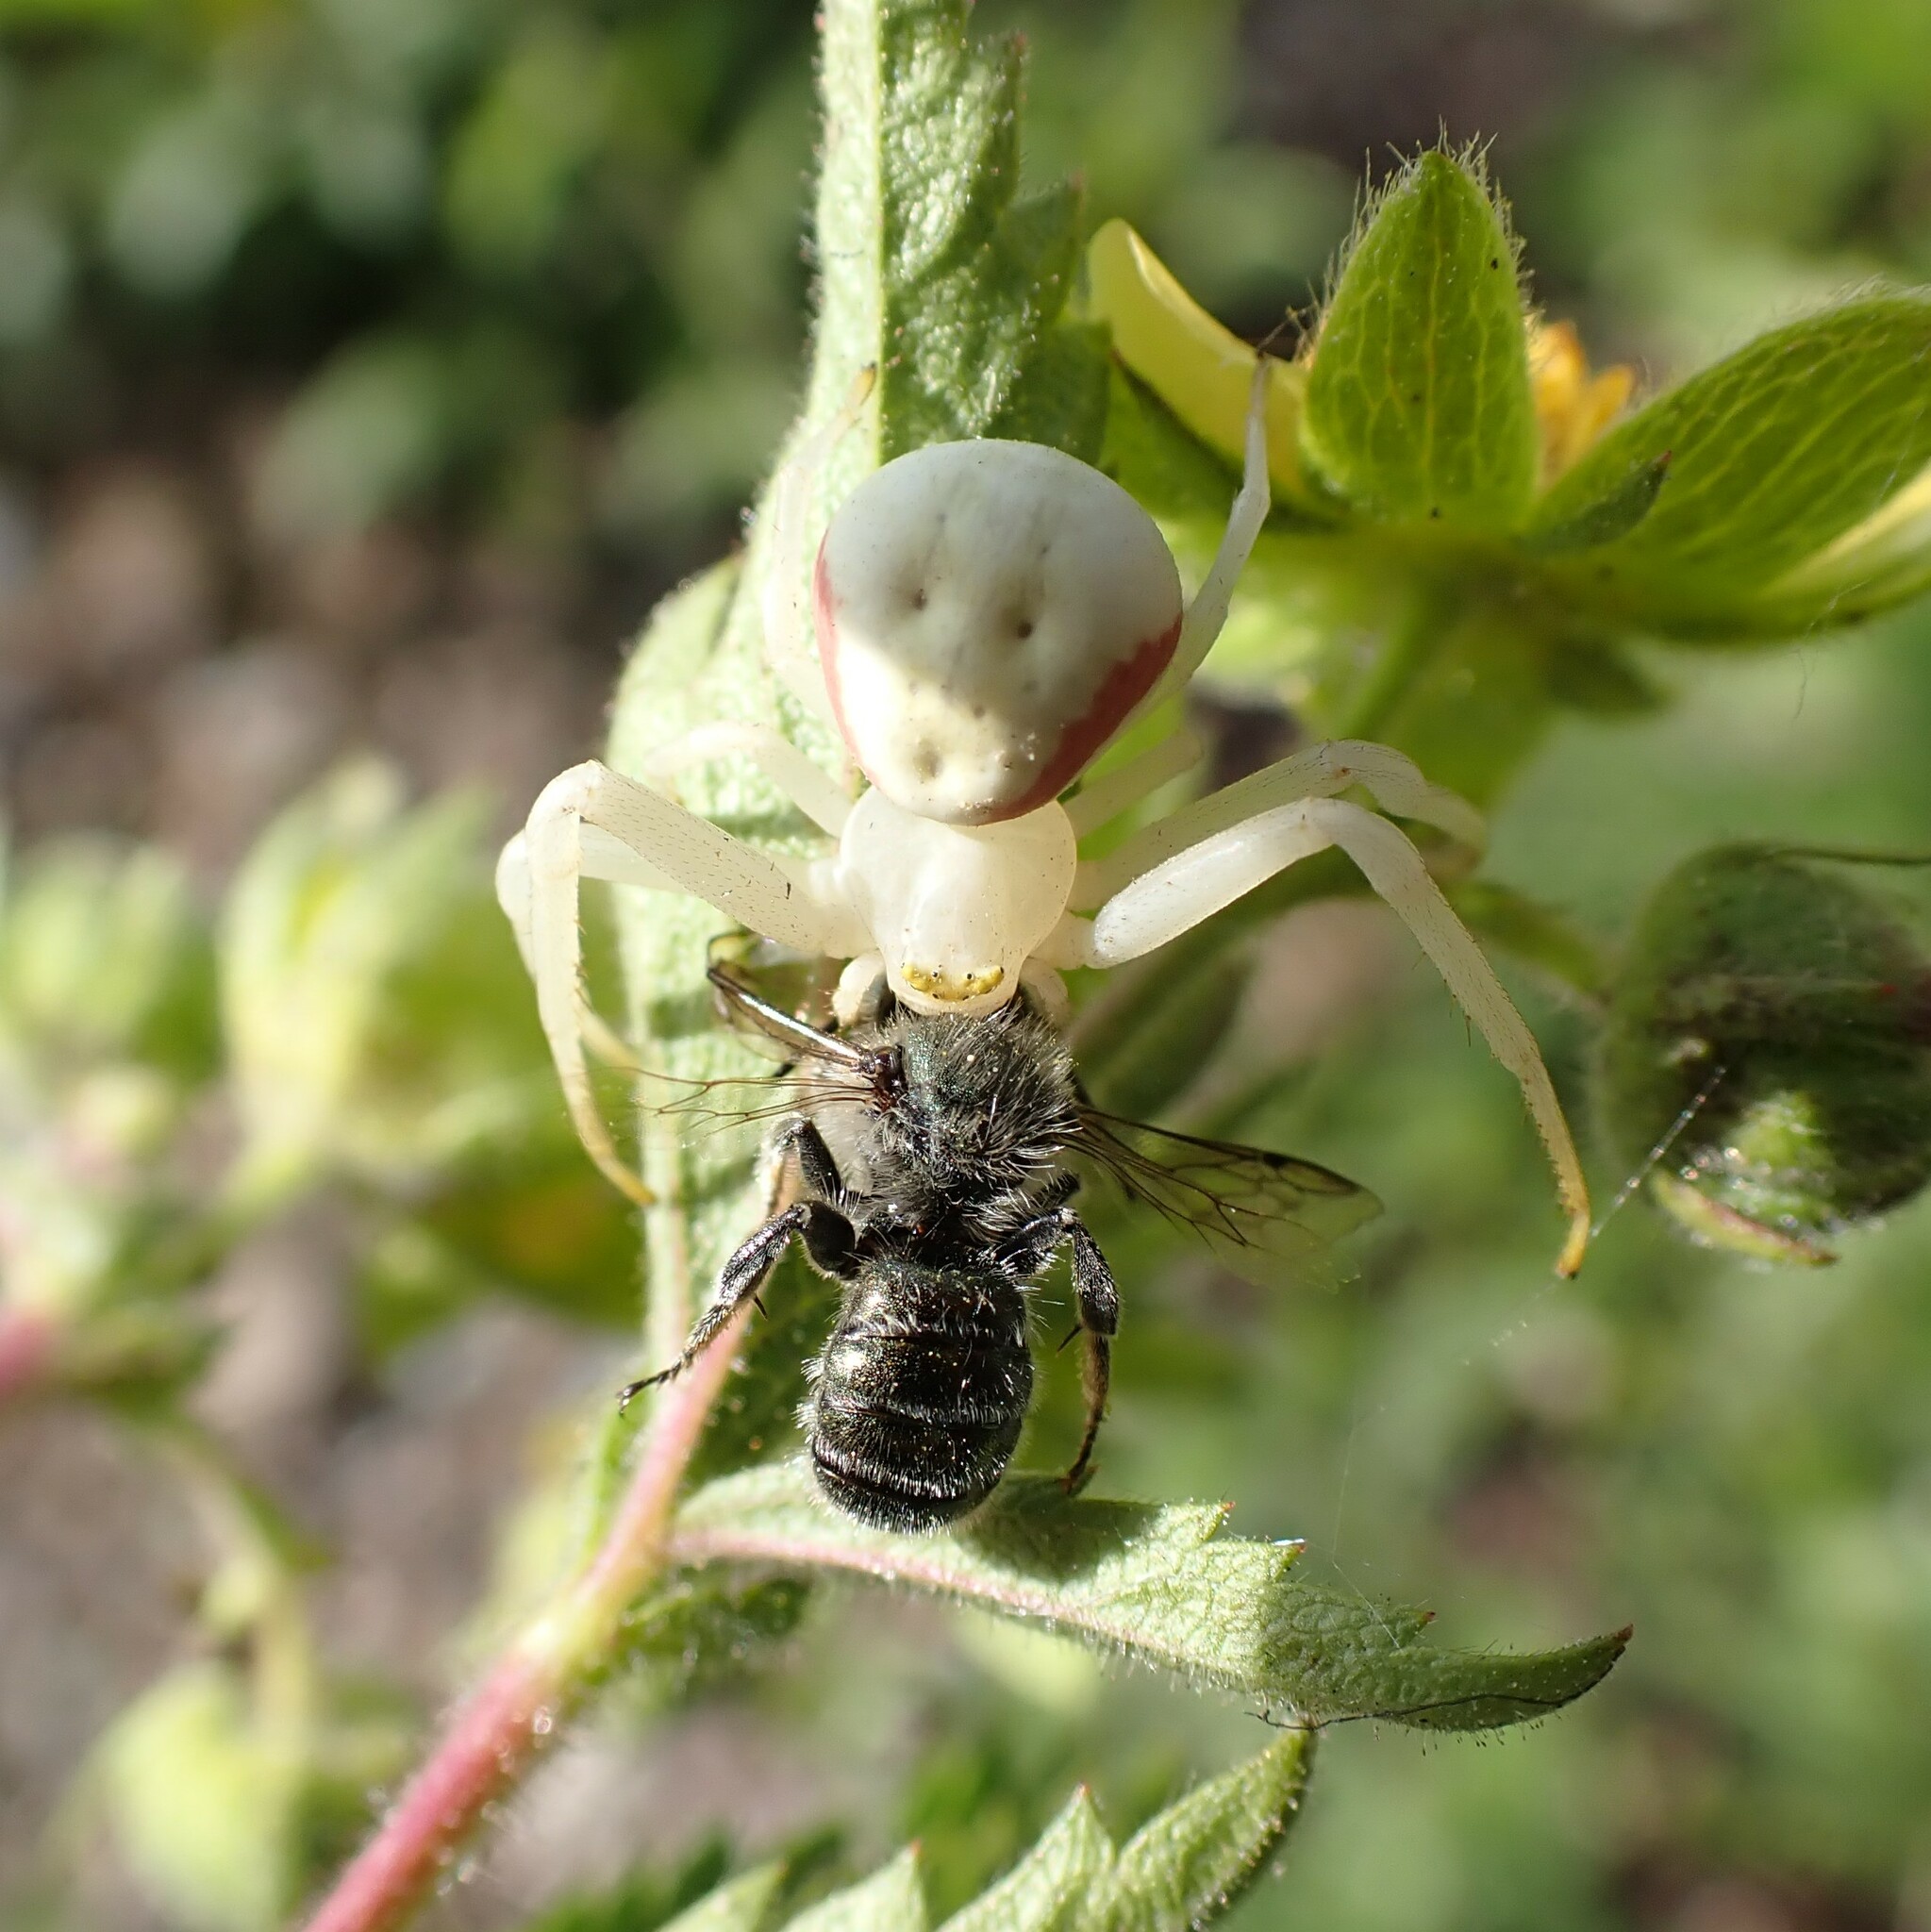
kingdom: Animalia
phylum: Arthropoda
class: Arachnida
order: Araneae
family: Thomisidae
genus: Misumena
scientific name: Misumena vatia
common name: Goldenrod crab spider
